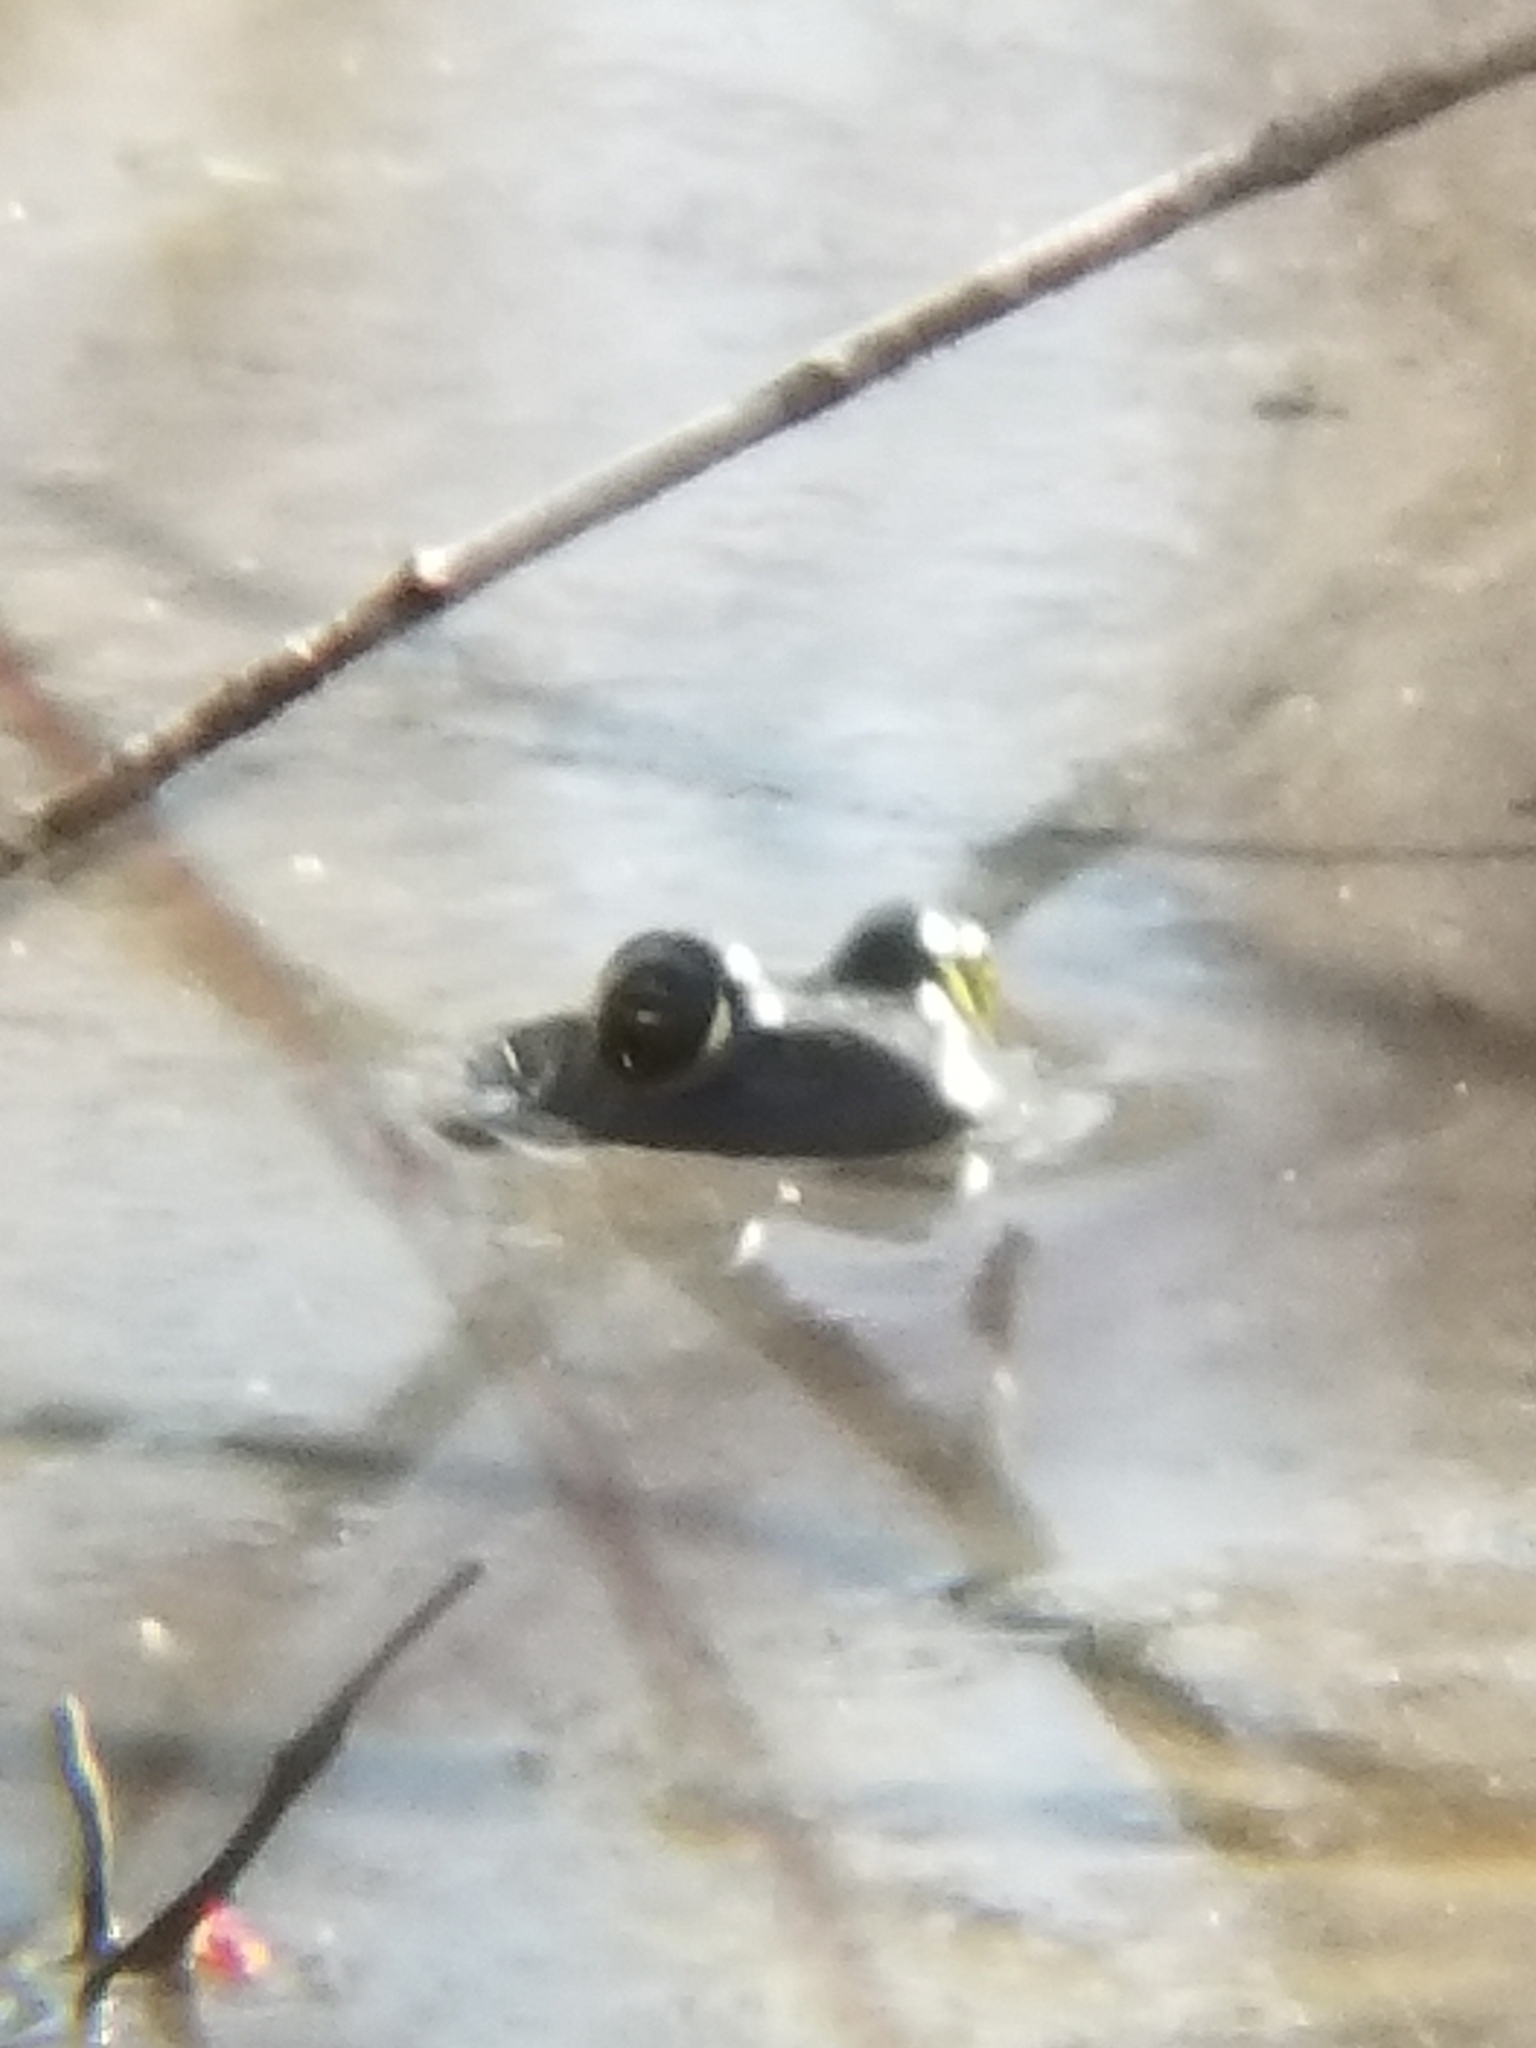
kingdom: Animalia
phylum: Chordata
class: Amphibia
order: Anura
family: Ranidae
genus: Lithobates
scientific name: Lithobates
